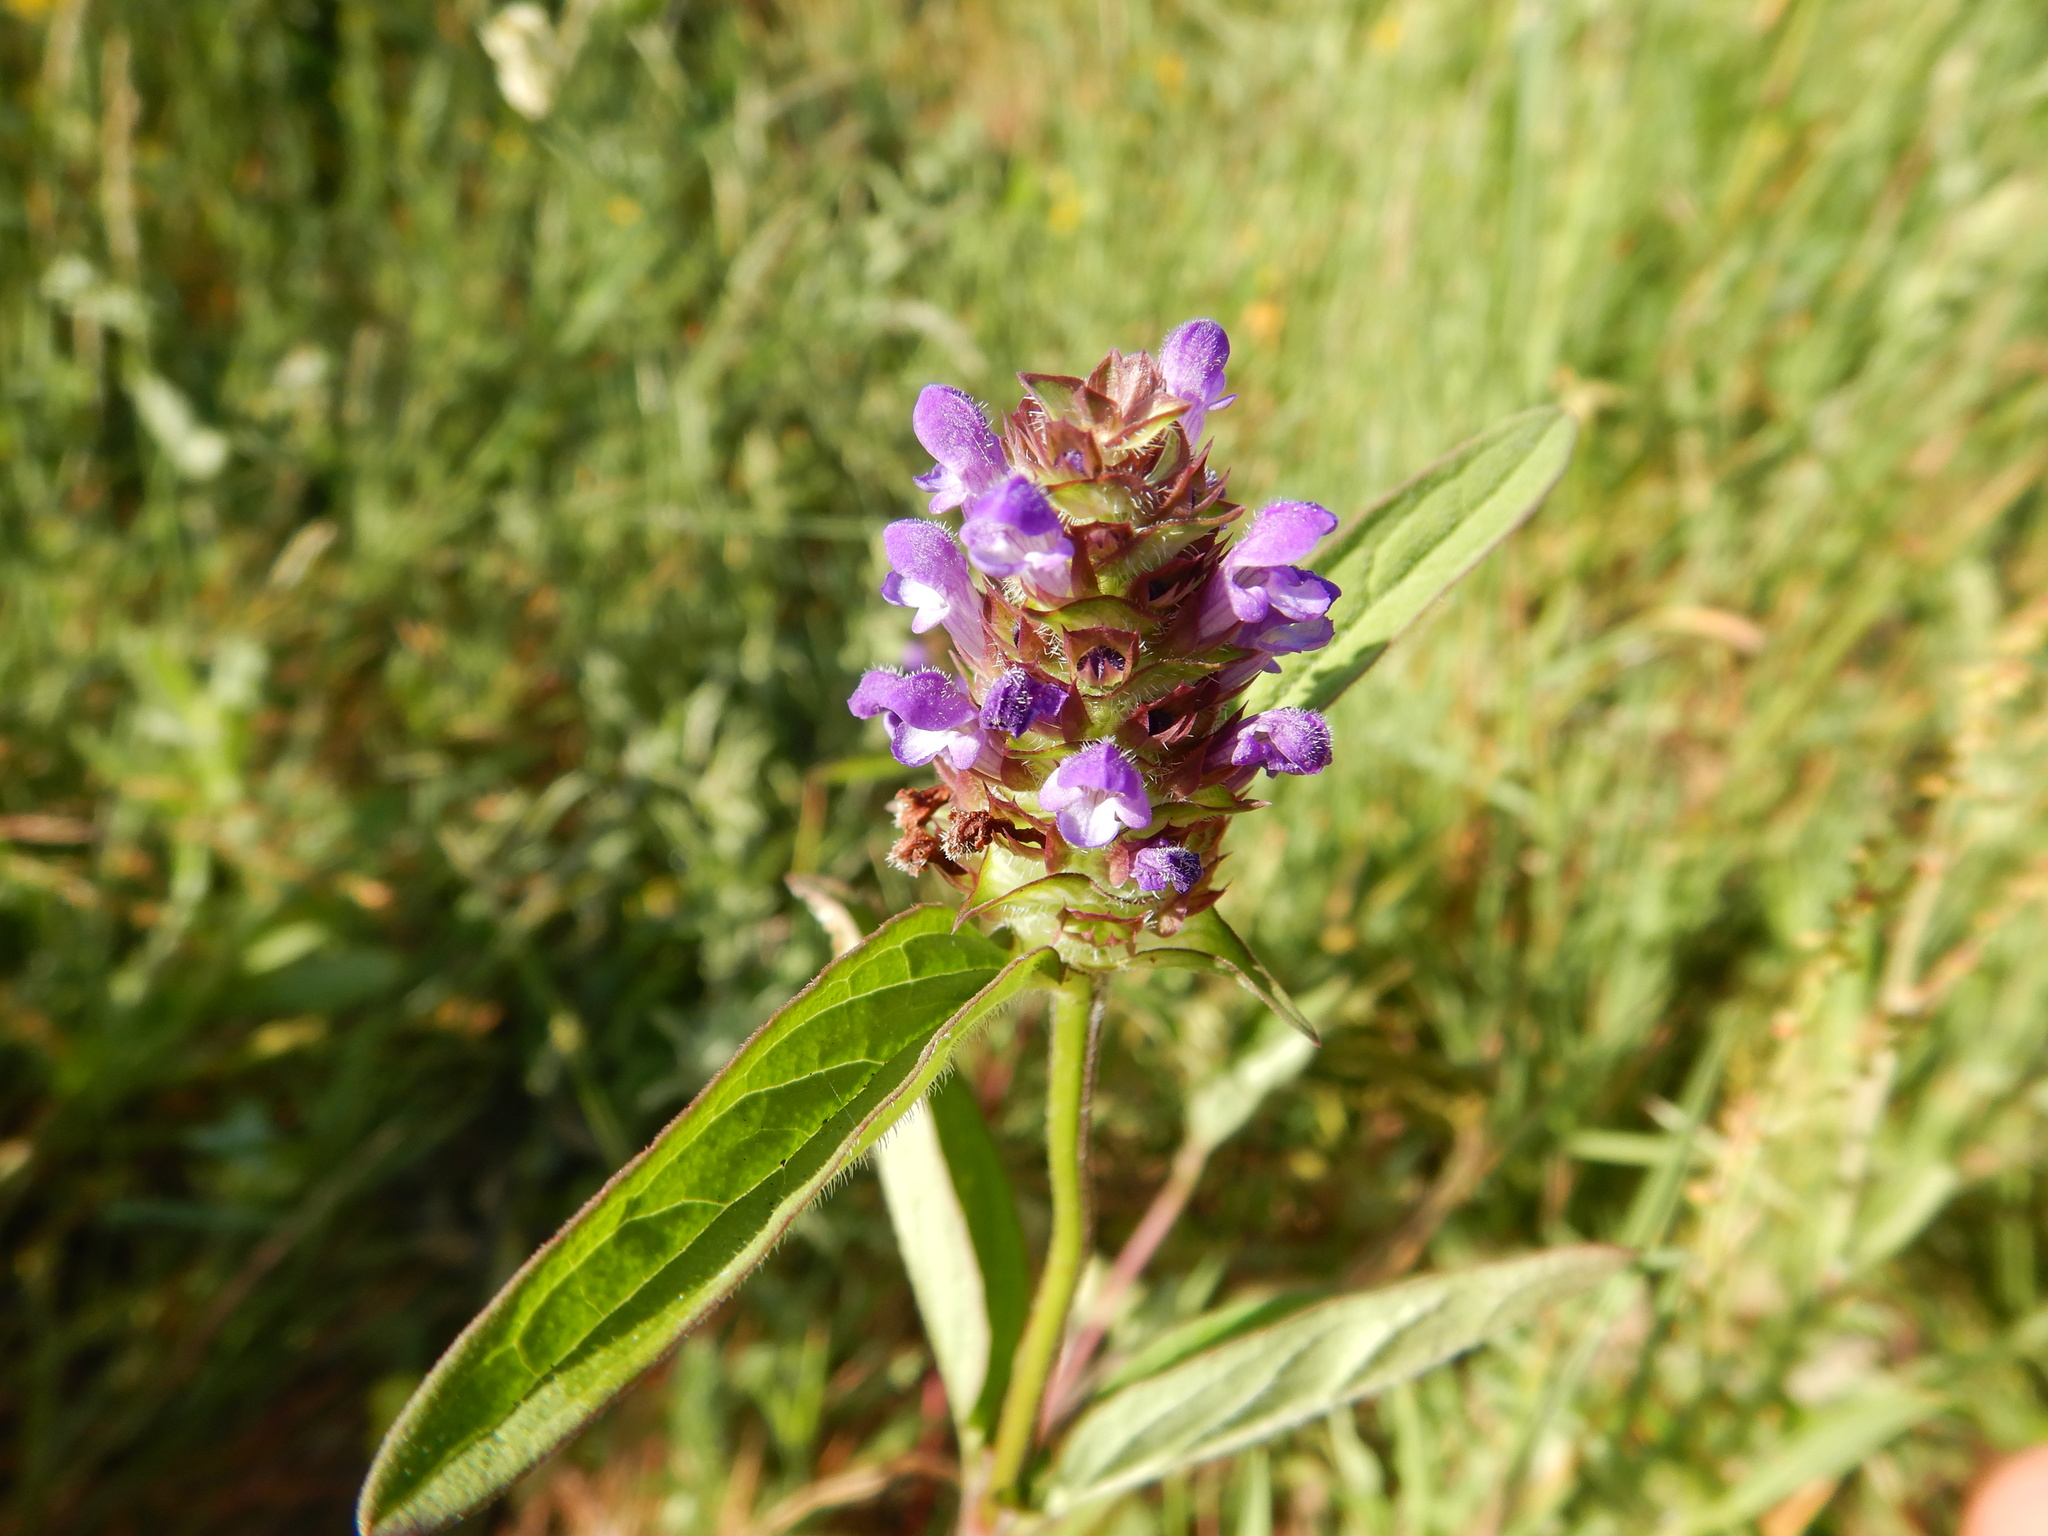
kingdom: Plantae
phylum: Tracheophyta
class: Magnoliopsida
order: Lamiales
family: Lamiaceae
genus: Prunella
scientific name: Prunella vulgaris
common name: Heal-all
